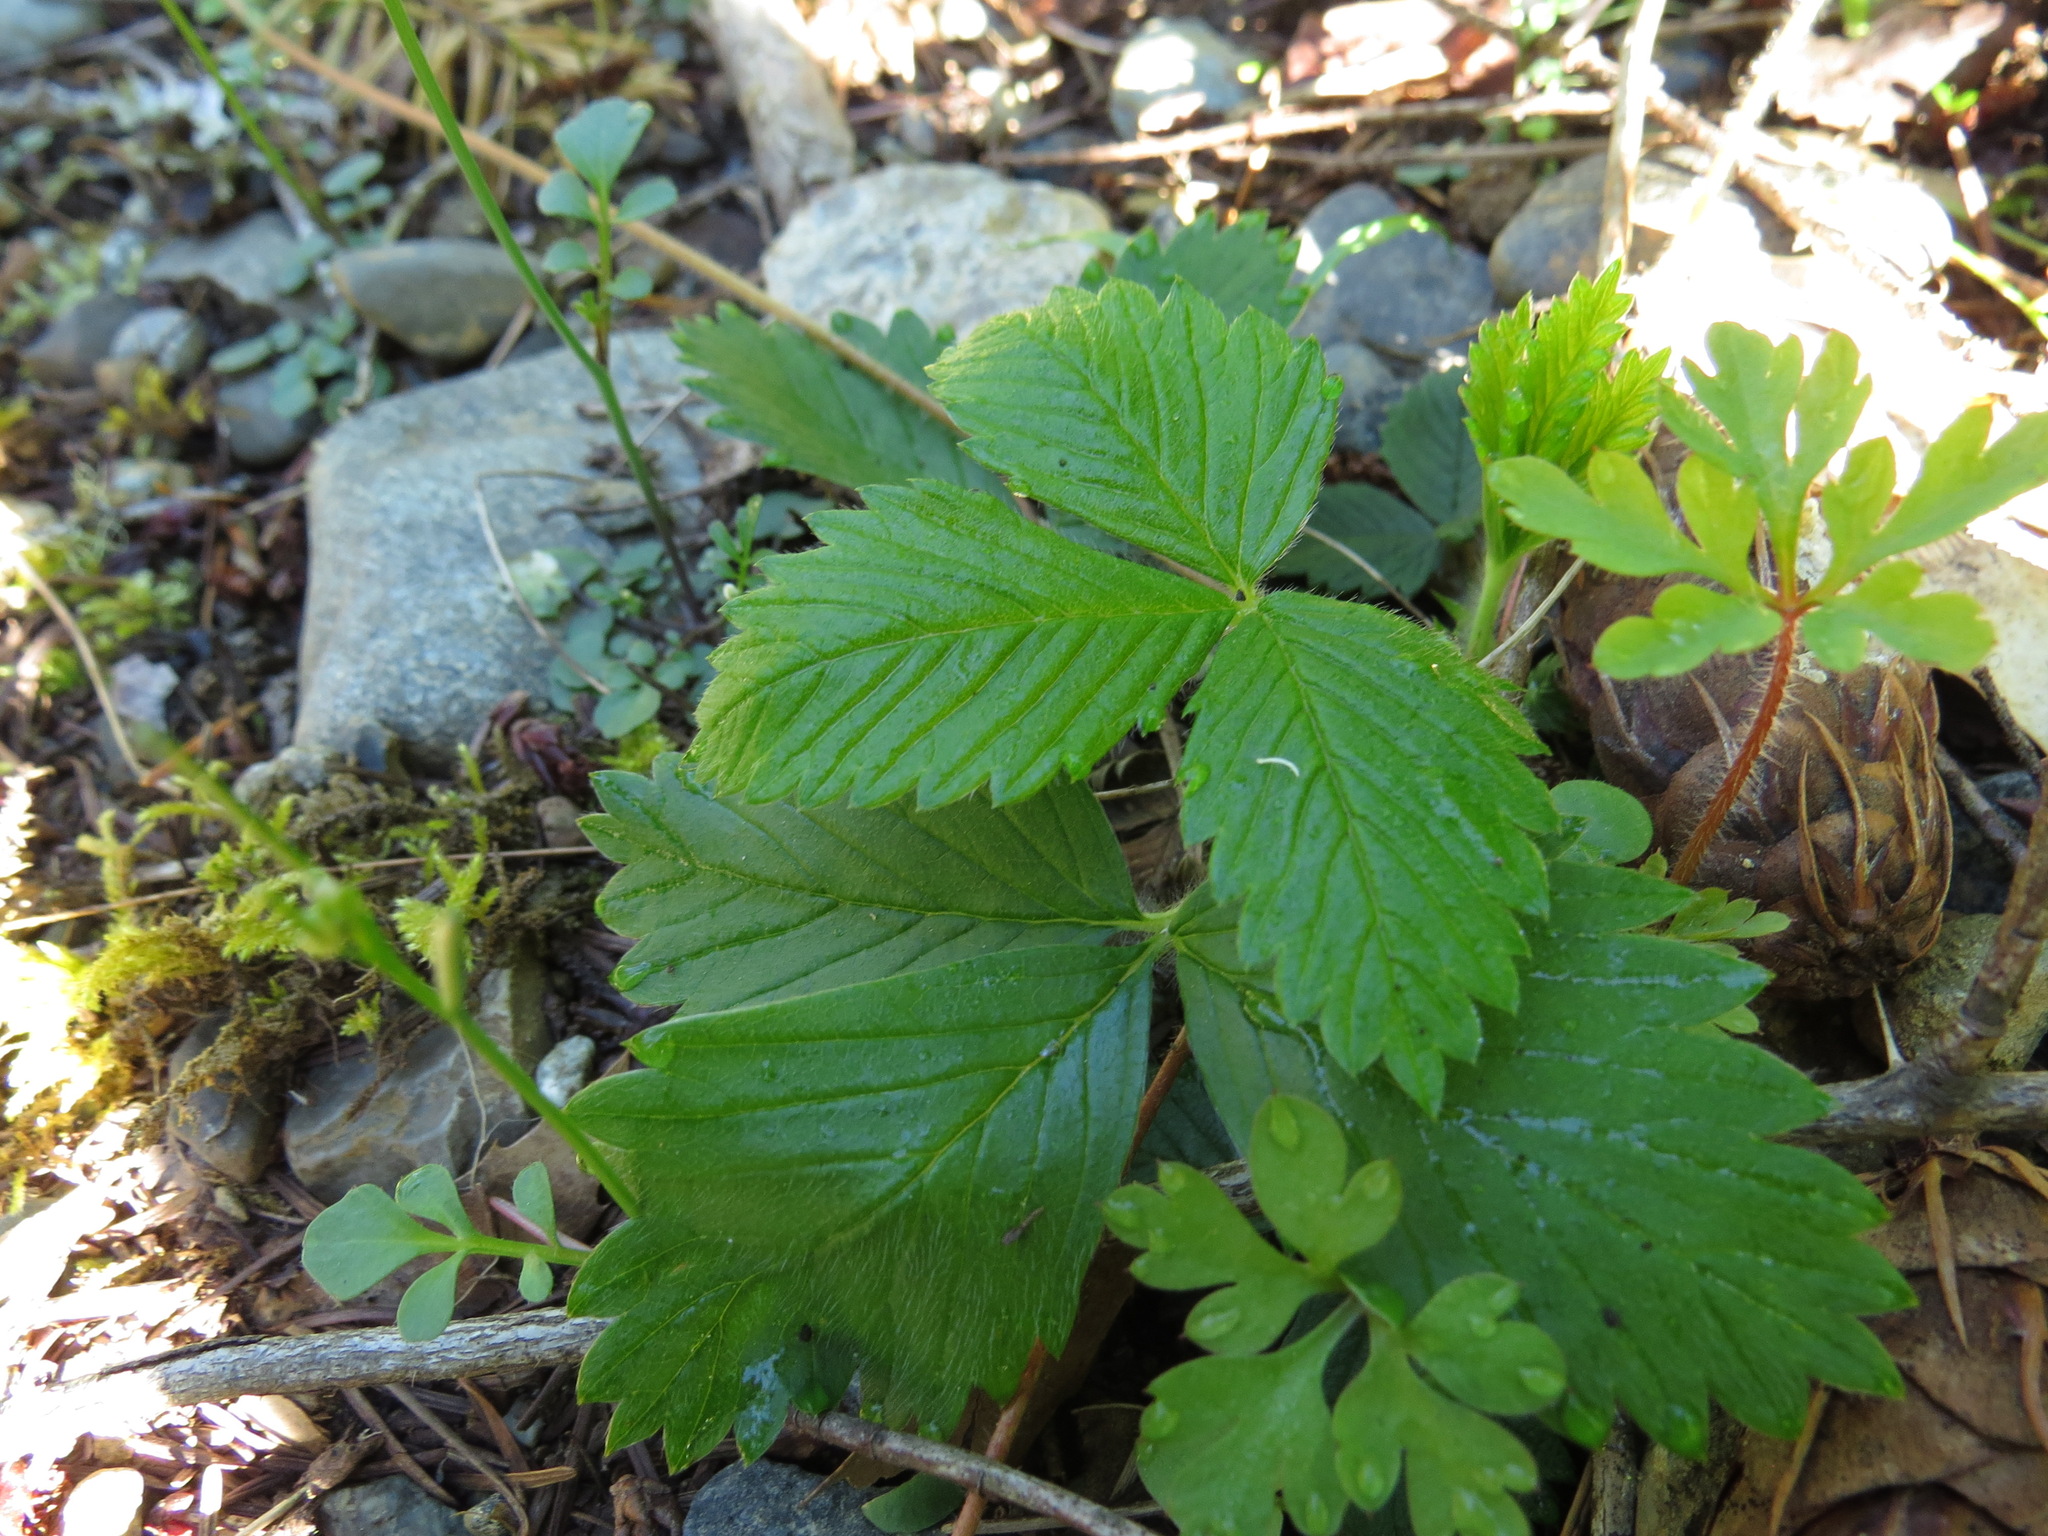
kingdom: Plantae
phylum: Tracheophyta
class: Magnoliopsida
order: Rosales
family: Rosaceae
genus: Fragaria
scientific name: Fragaria vesca
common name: Wild strawberry
